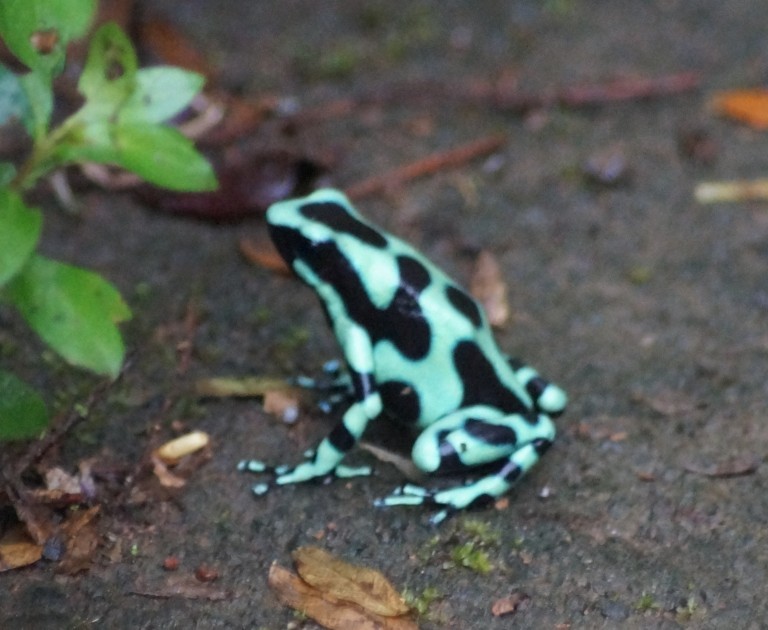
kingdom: Animalia
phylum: Chordata
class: Amphibia
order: Anura
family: Dendrobatidae
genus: Dendrobates
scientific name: Dendrobates auratus
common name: Green and black poison dart frog
